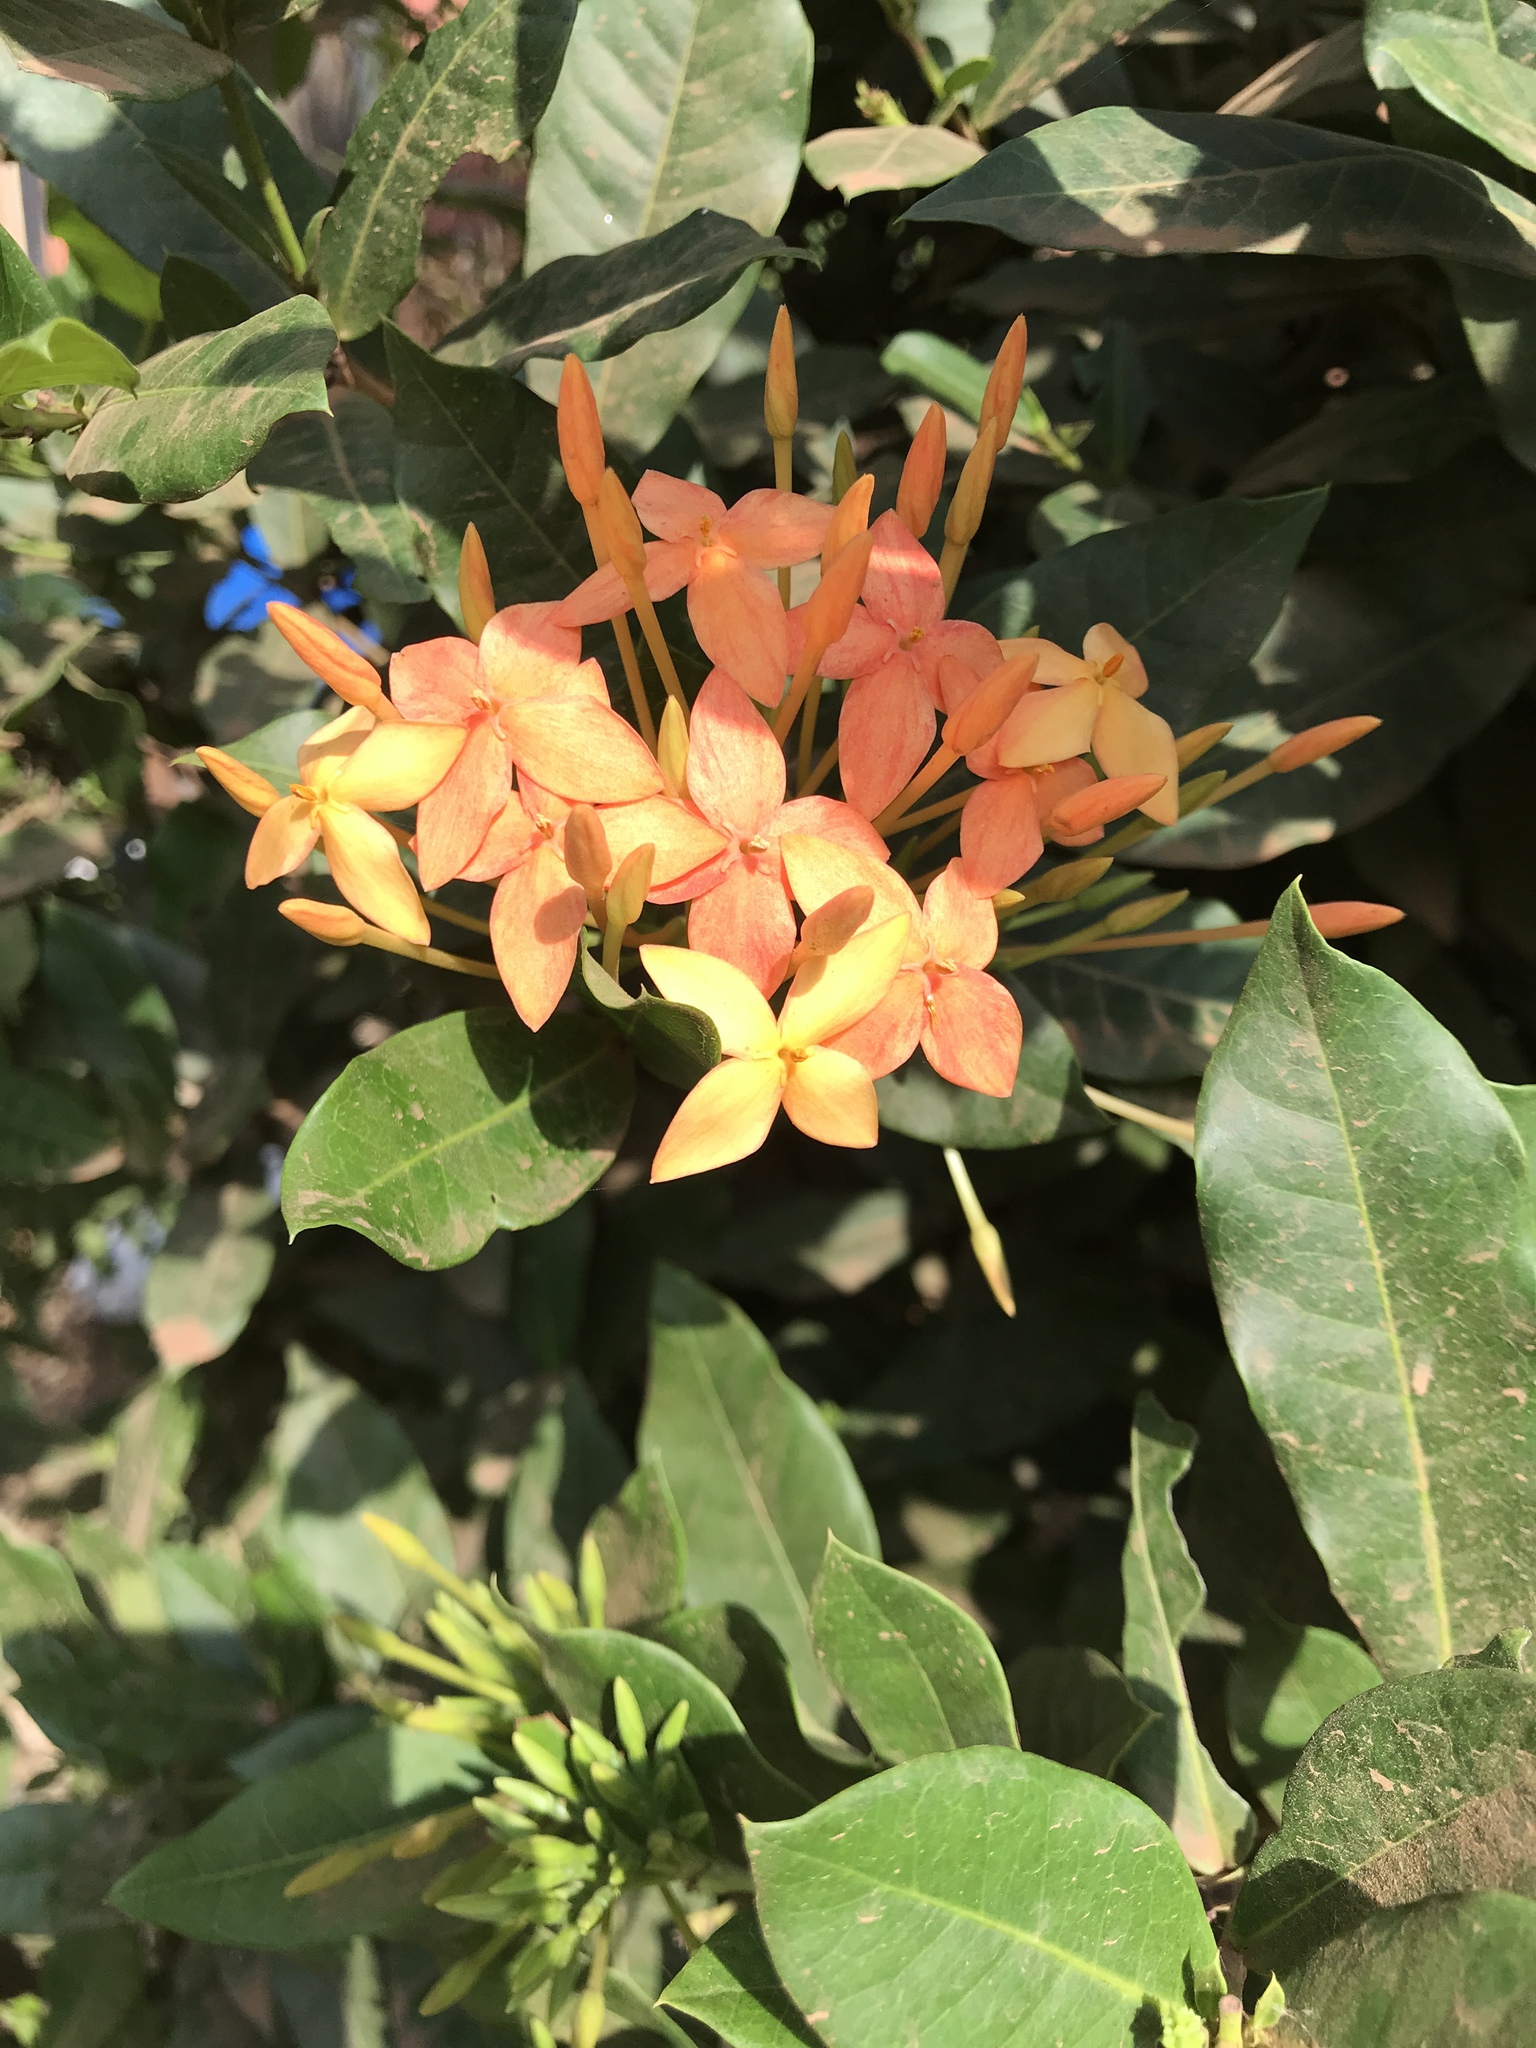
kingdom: Plantae
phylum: Tracheophyta
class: Magnoliopsida
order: Gentianales
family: Rubiaceae
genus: Ixora
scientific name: Ixora coccinea
